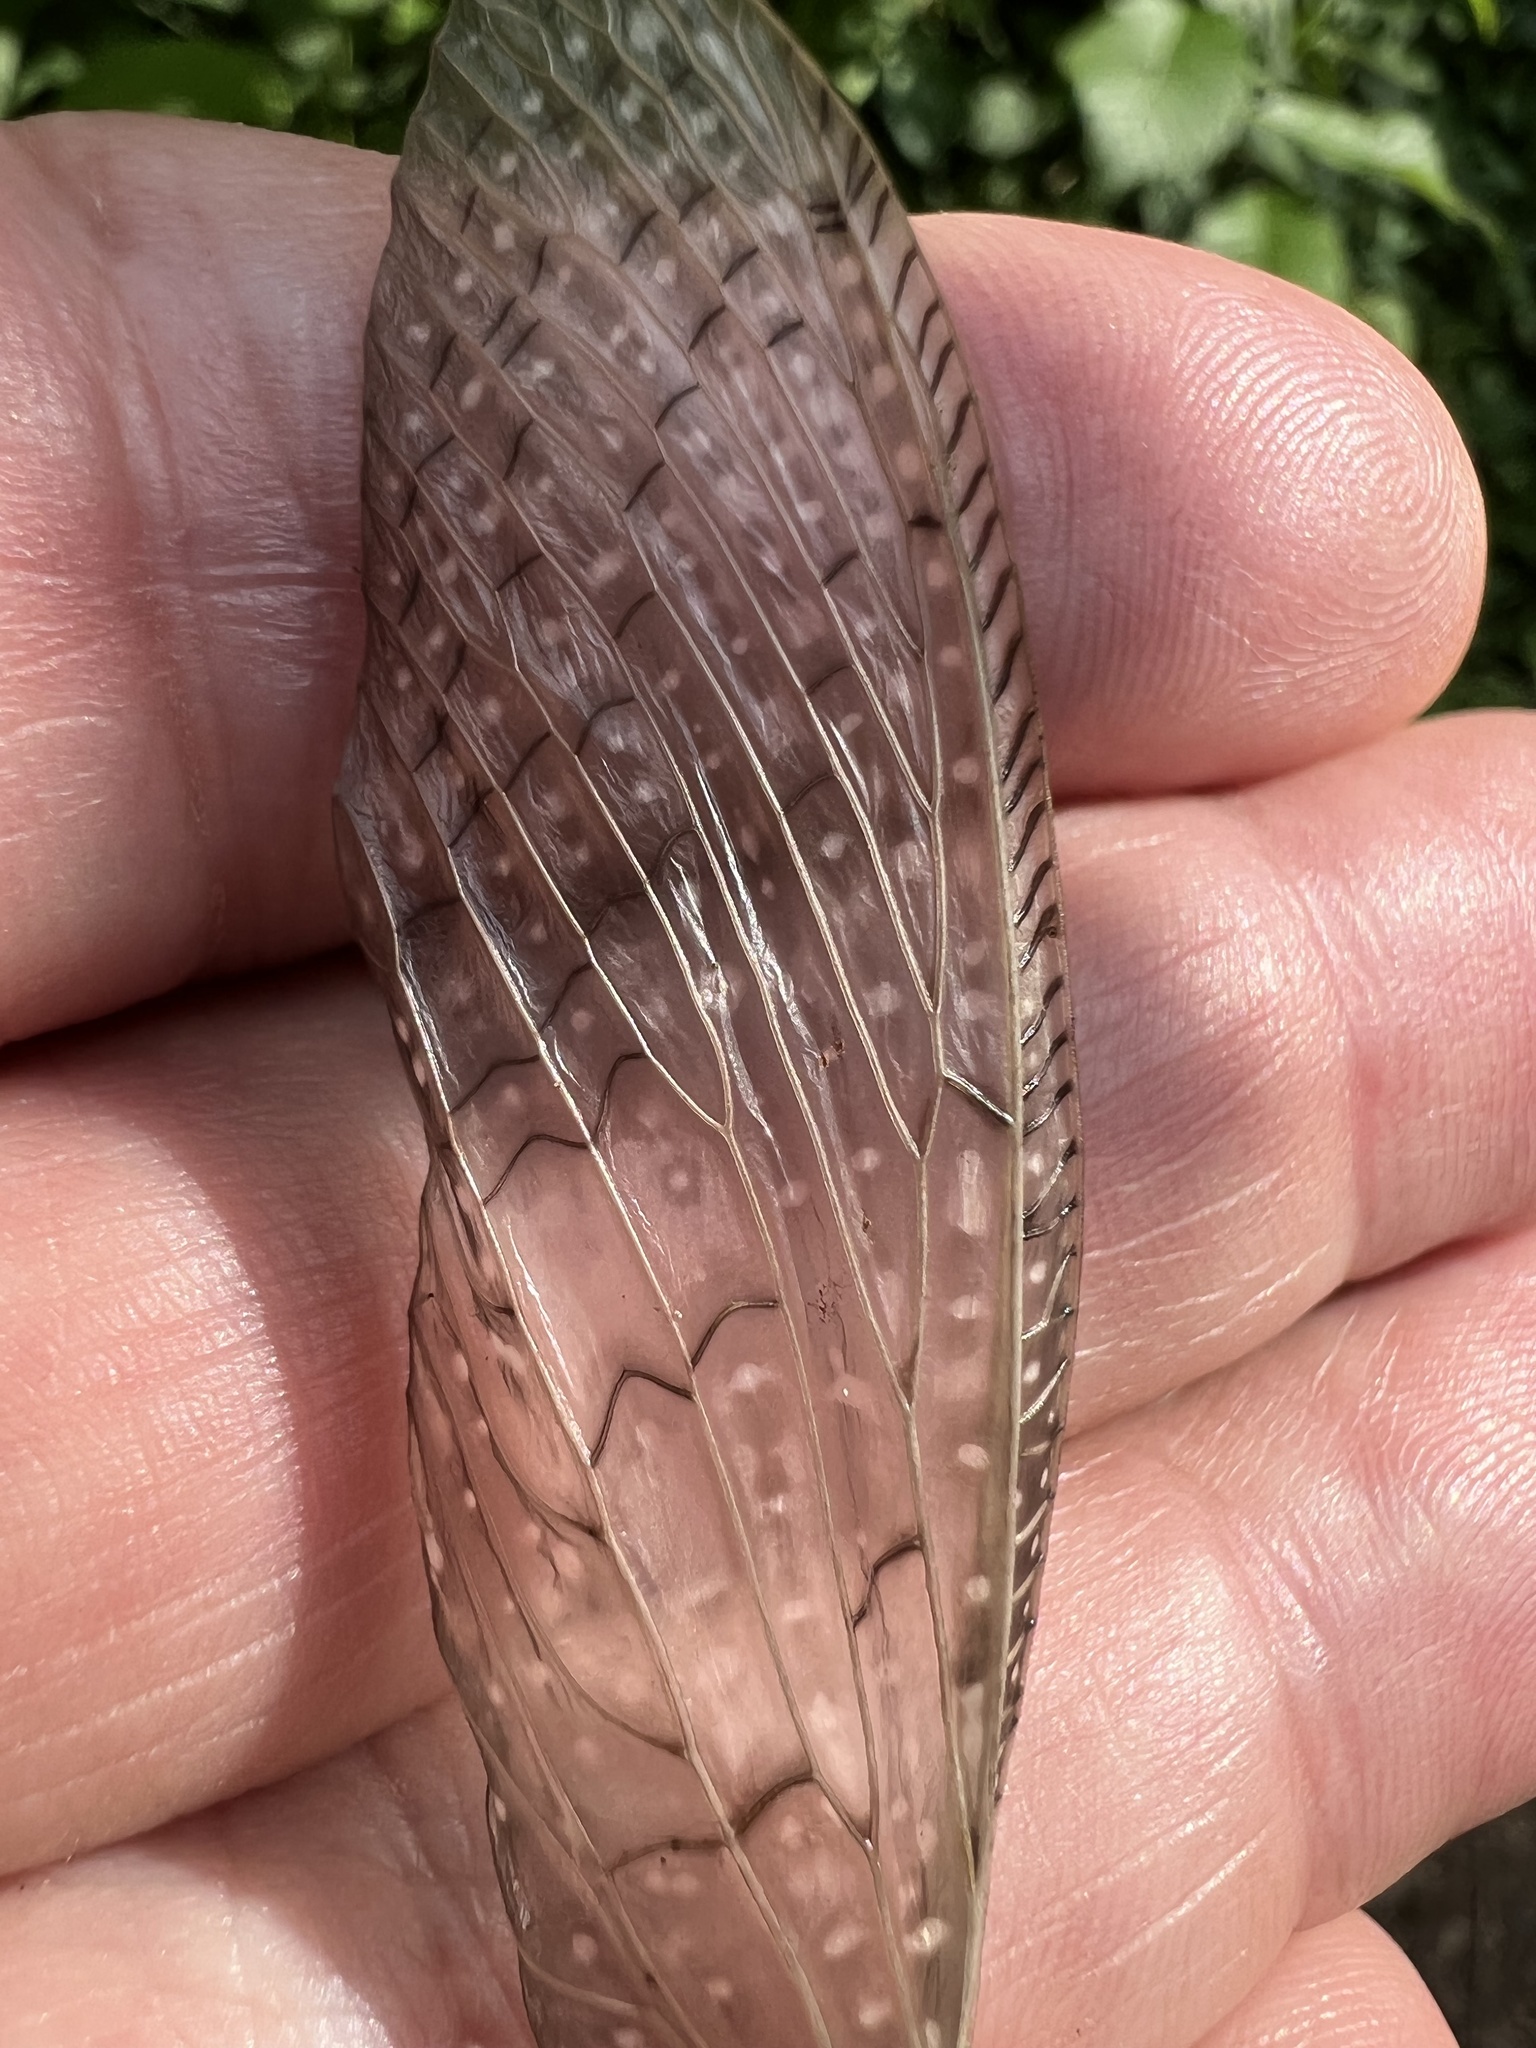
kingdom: Animalia
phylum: Arthropoda
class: Insecta
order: Megaloptera
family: Corydalidae
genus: Corydalus
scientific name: Corydalus cornutus
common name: Dobsonfly
